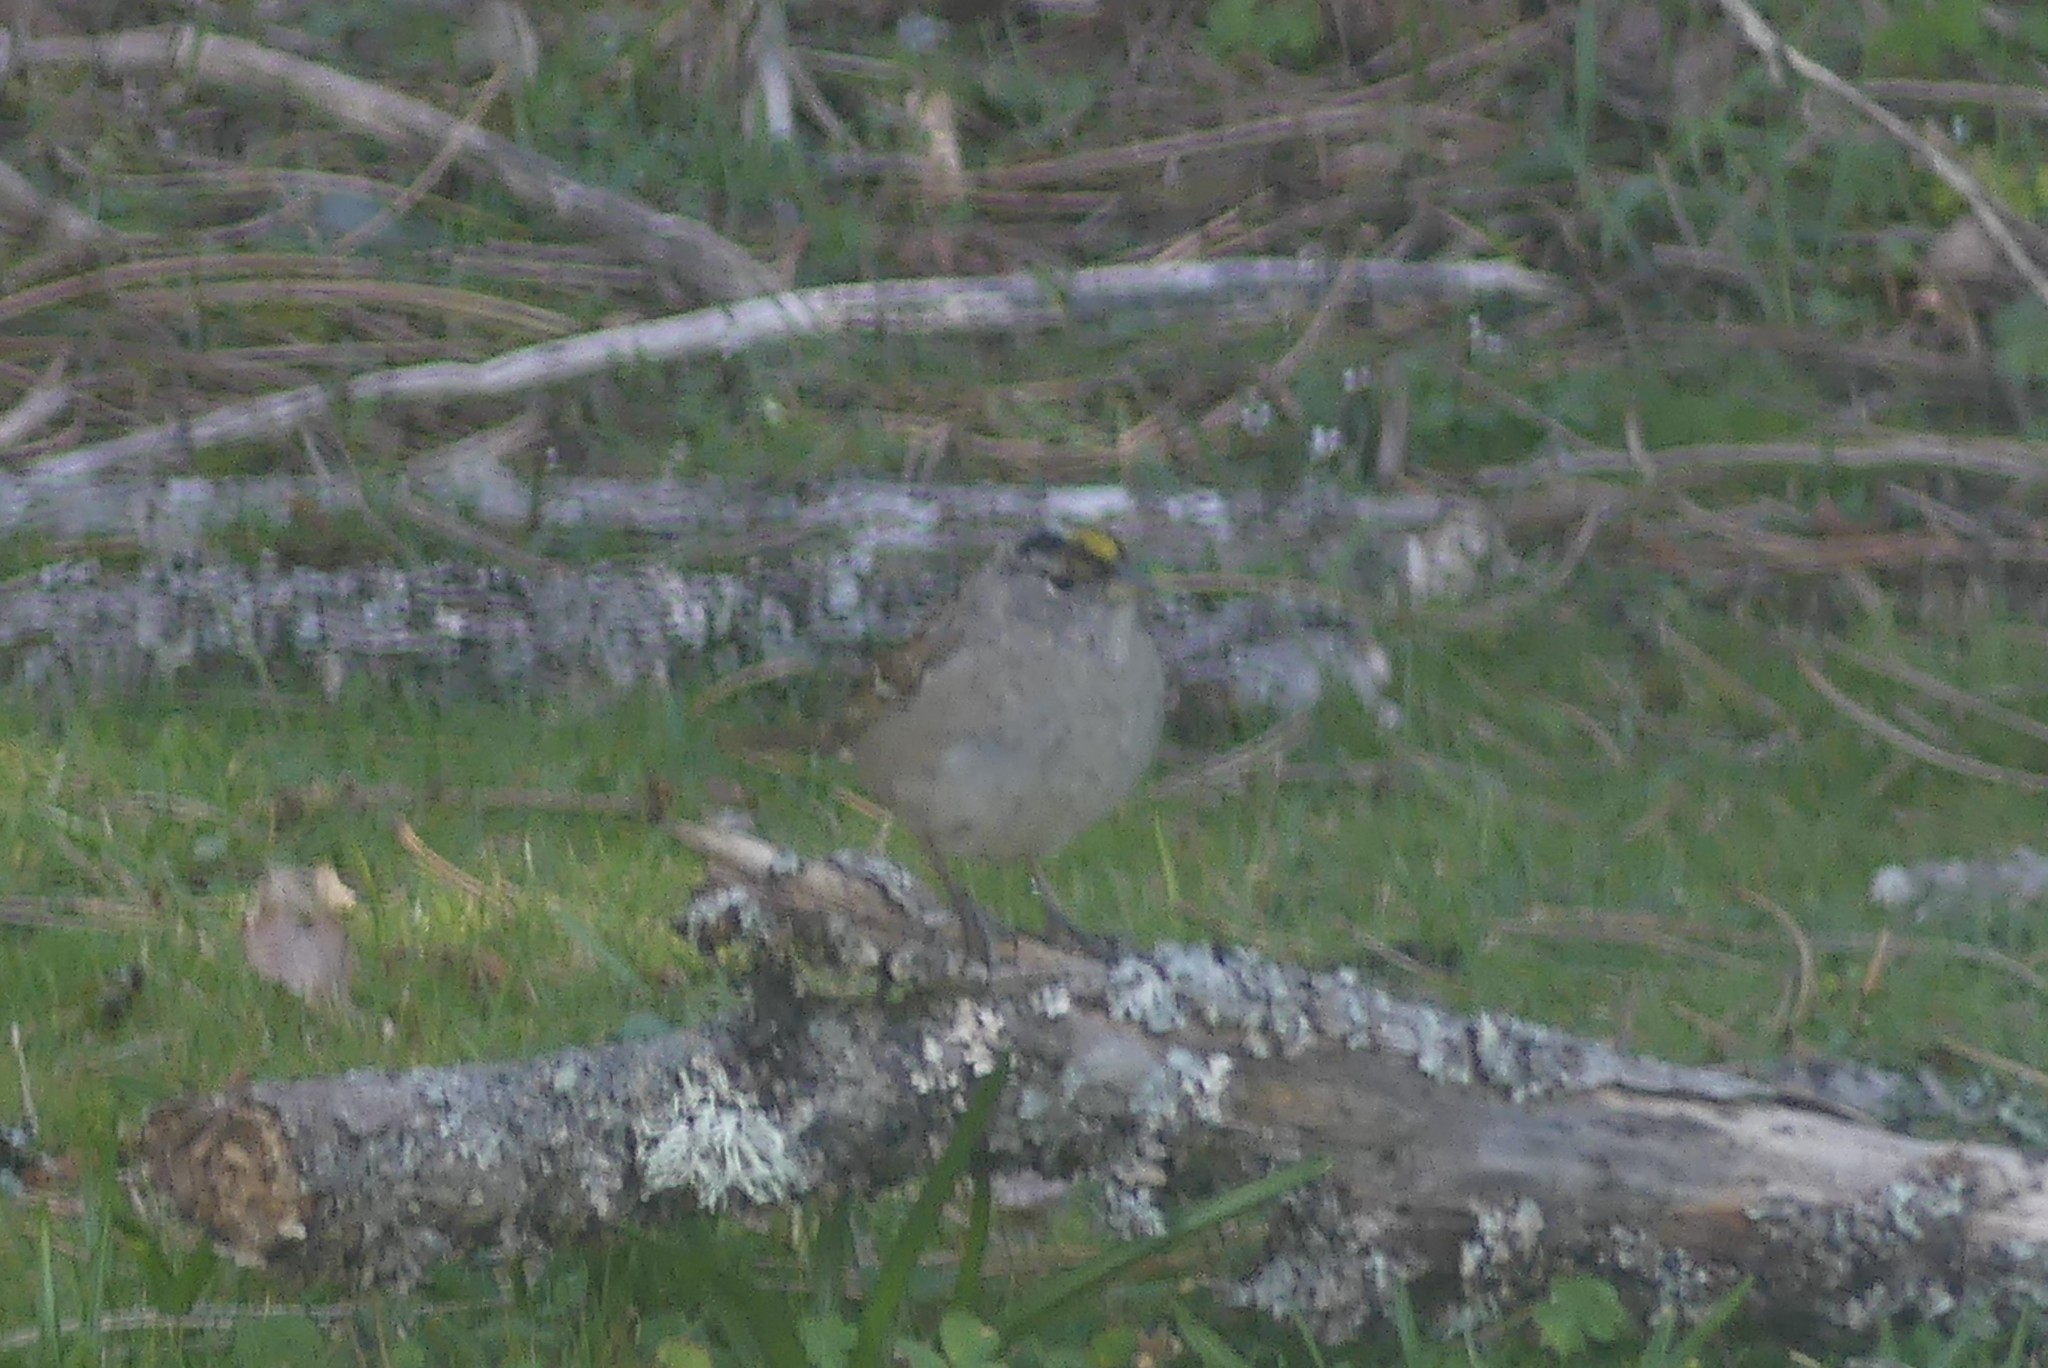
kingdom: Animalia
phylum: Chordata
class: Aves
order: Passeriformes
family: Passerellidae
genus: Zonotrichia
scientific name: Zonotrichia atricapilla
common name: Golden-crowned sparrow
